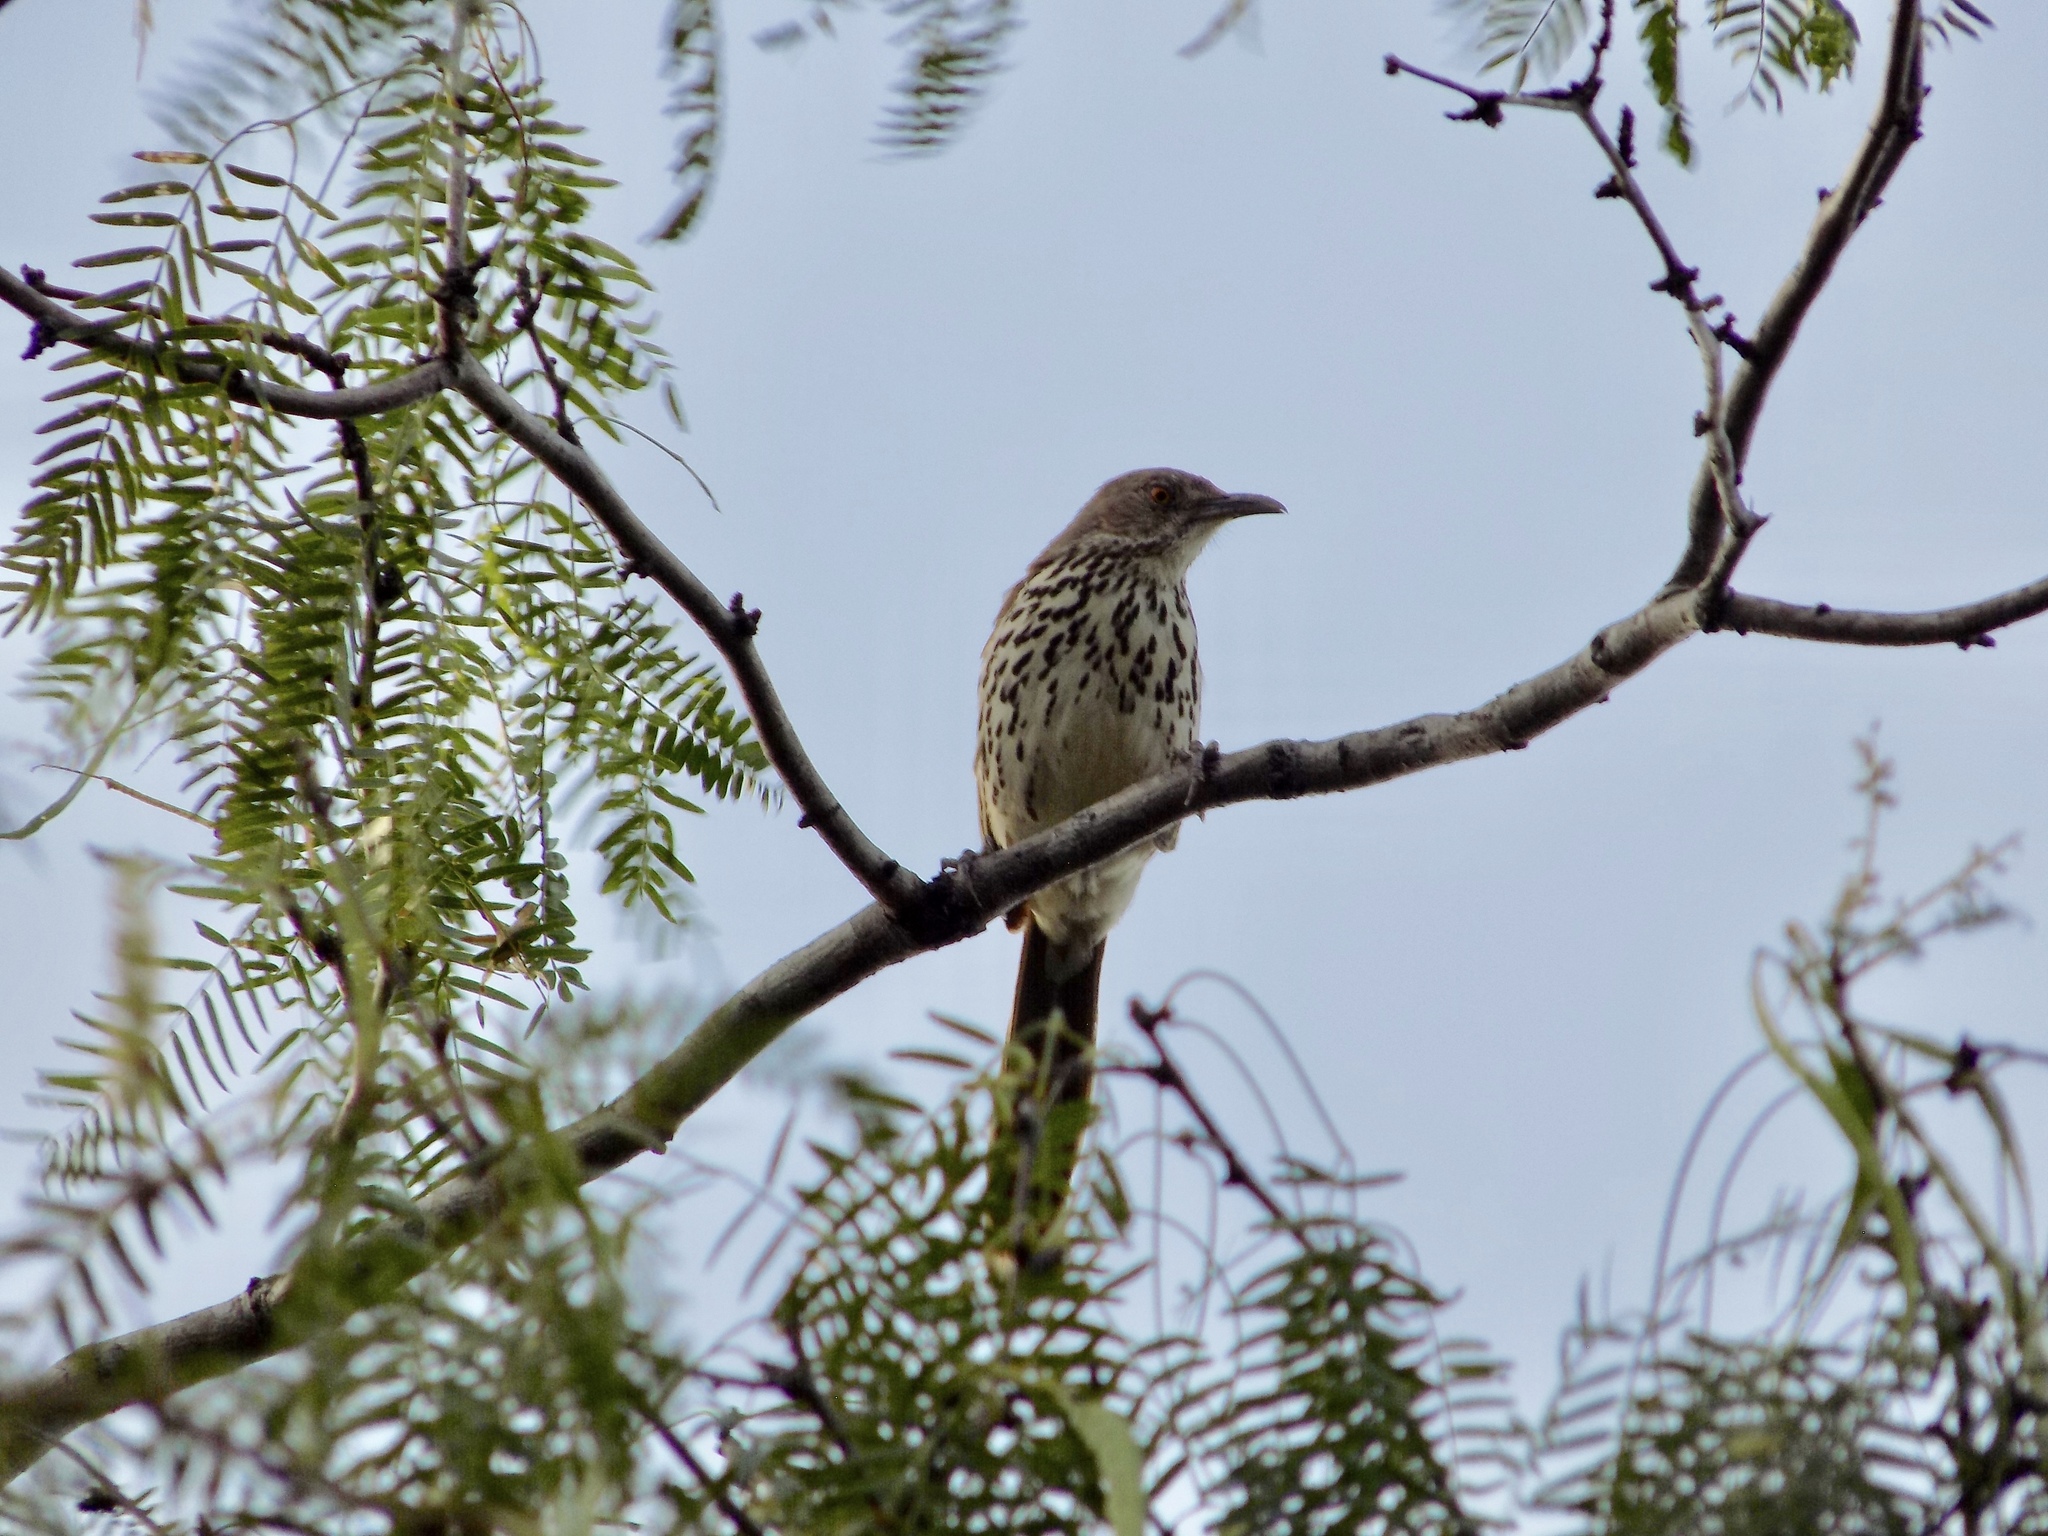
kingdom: Animalia
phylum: Chordata
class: Aves
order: Passeriformes
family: Mimidae
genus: Toxostoma
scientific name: Toxostoma longirostre
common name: Long-billed thrasher
